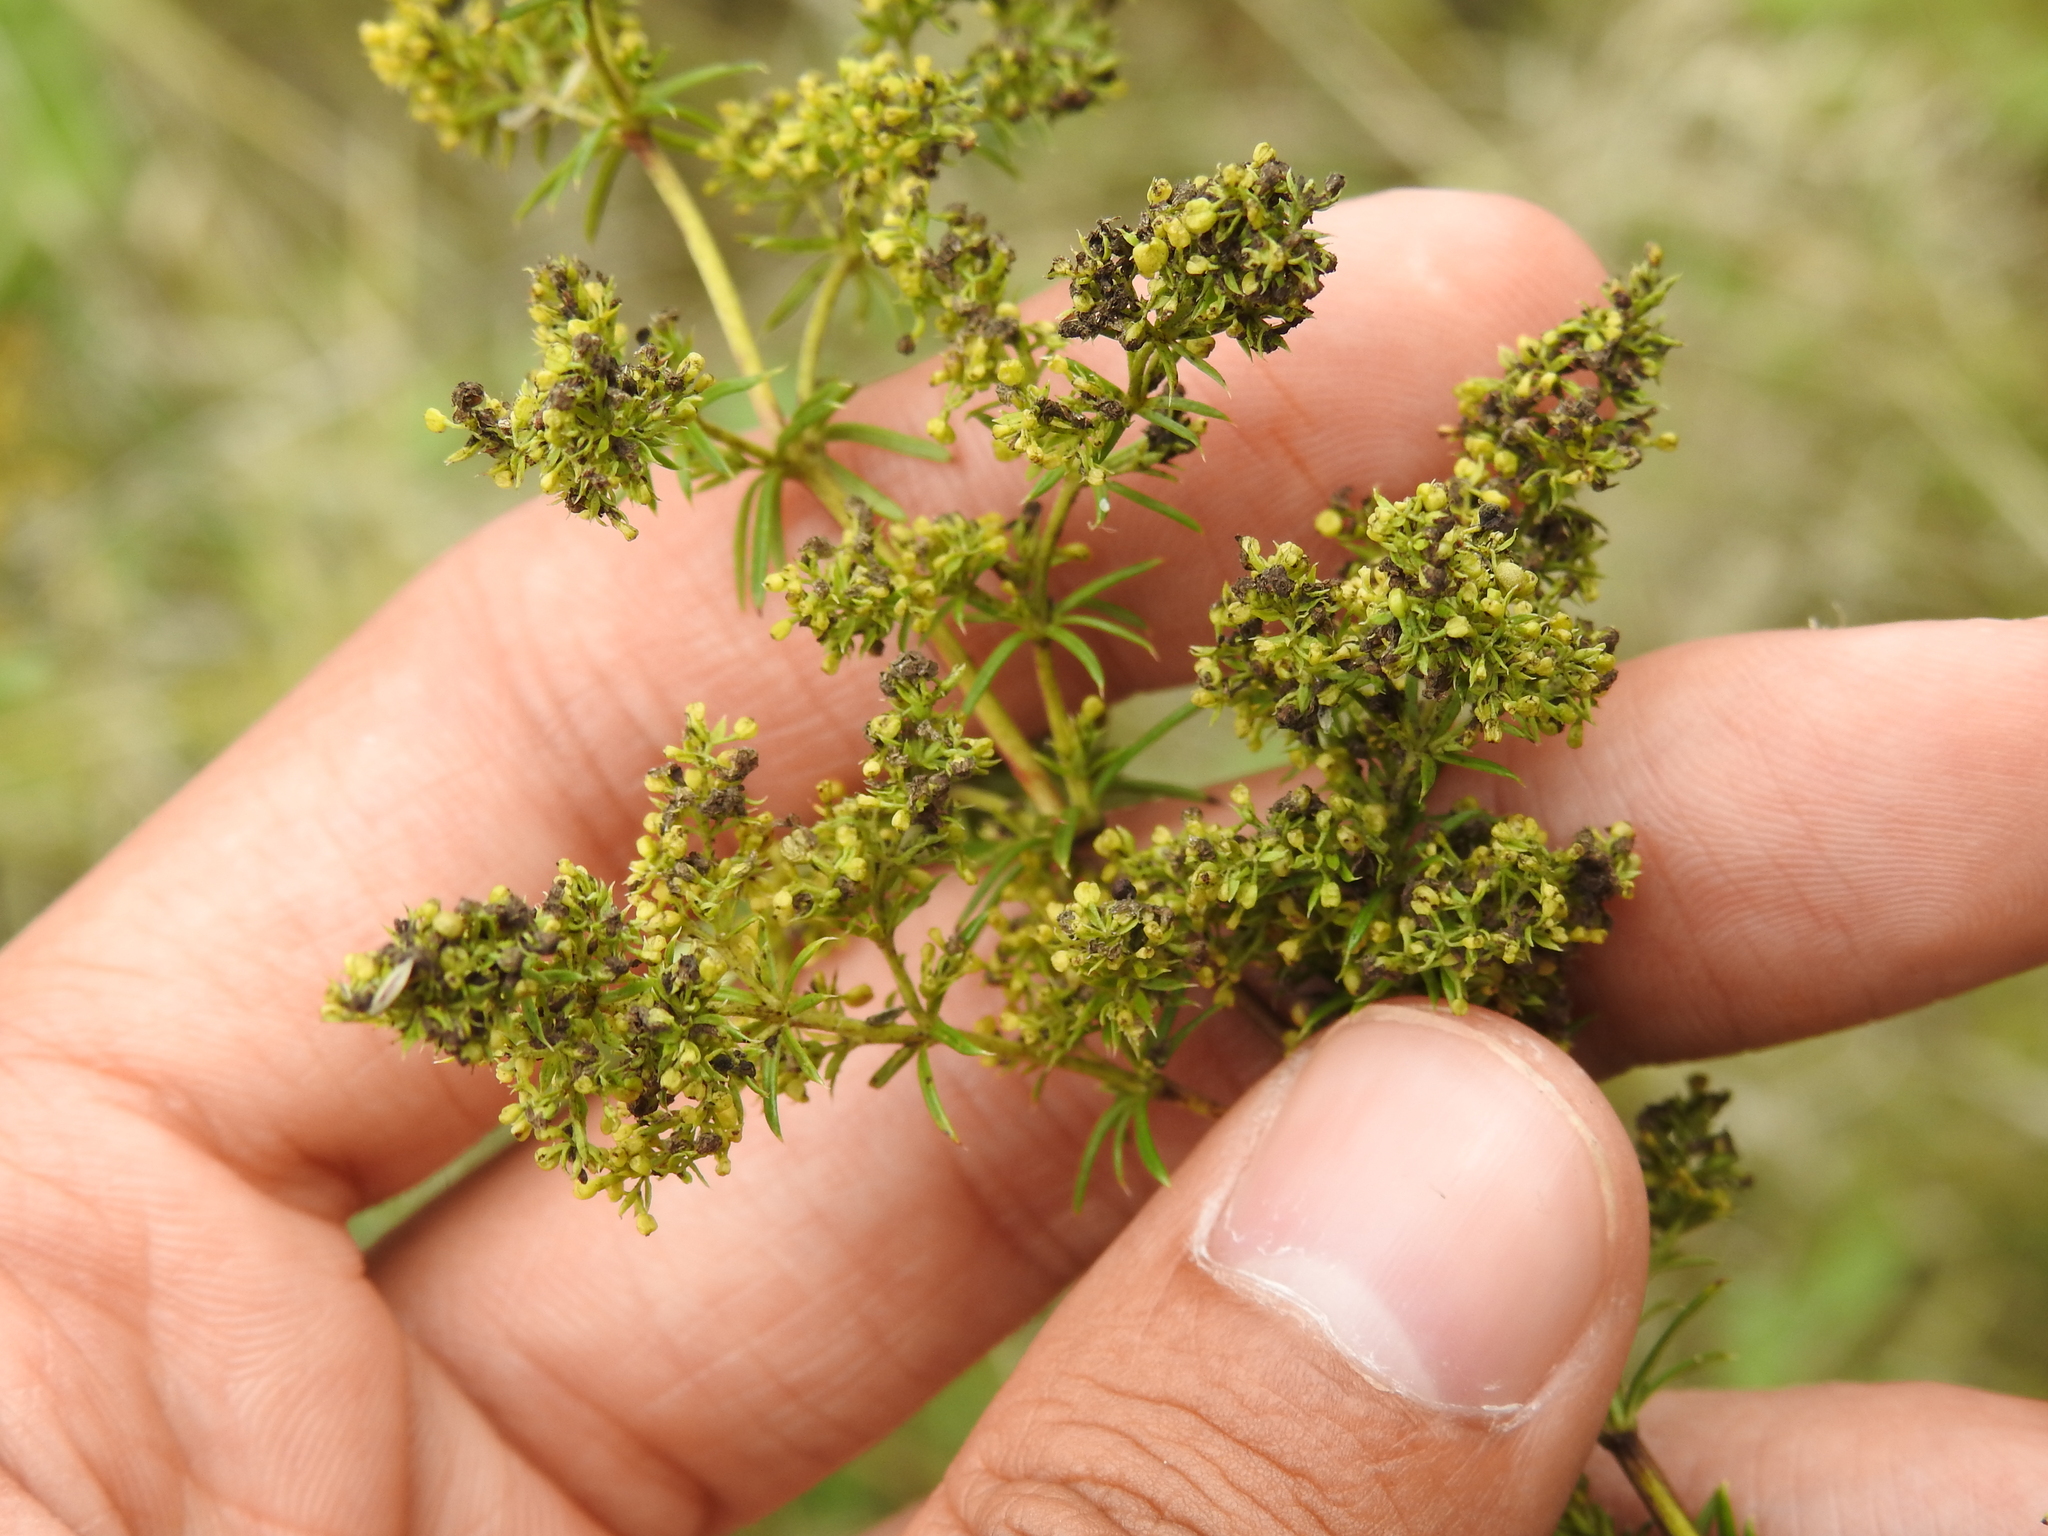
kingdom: Plantae
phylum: Tracheophyta
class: Magnoliopsida
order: Gentianales
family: Rubiaceae
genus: Galium
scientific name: Galium verum
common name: Lady's bedstraw
